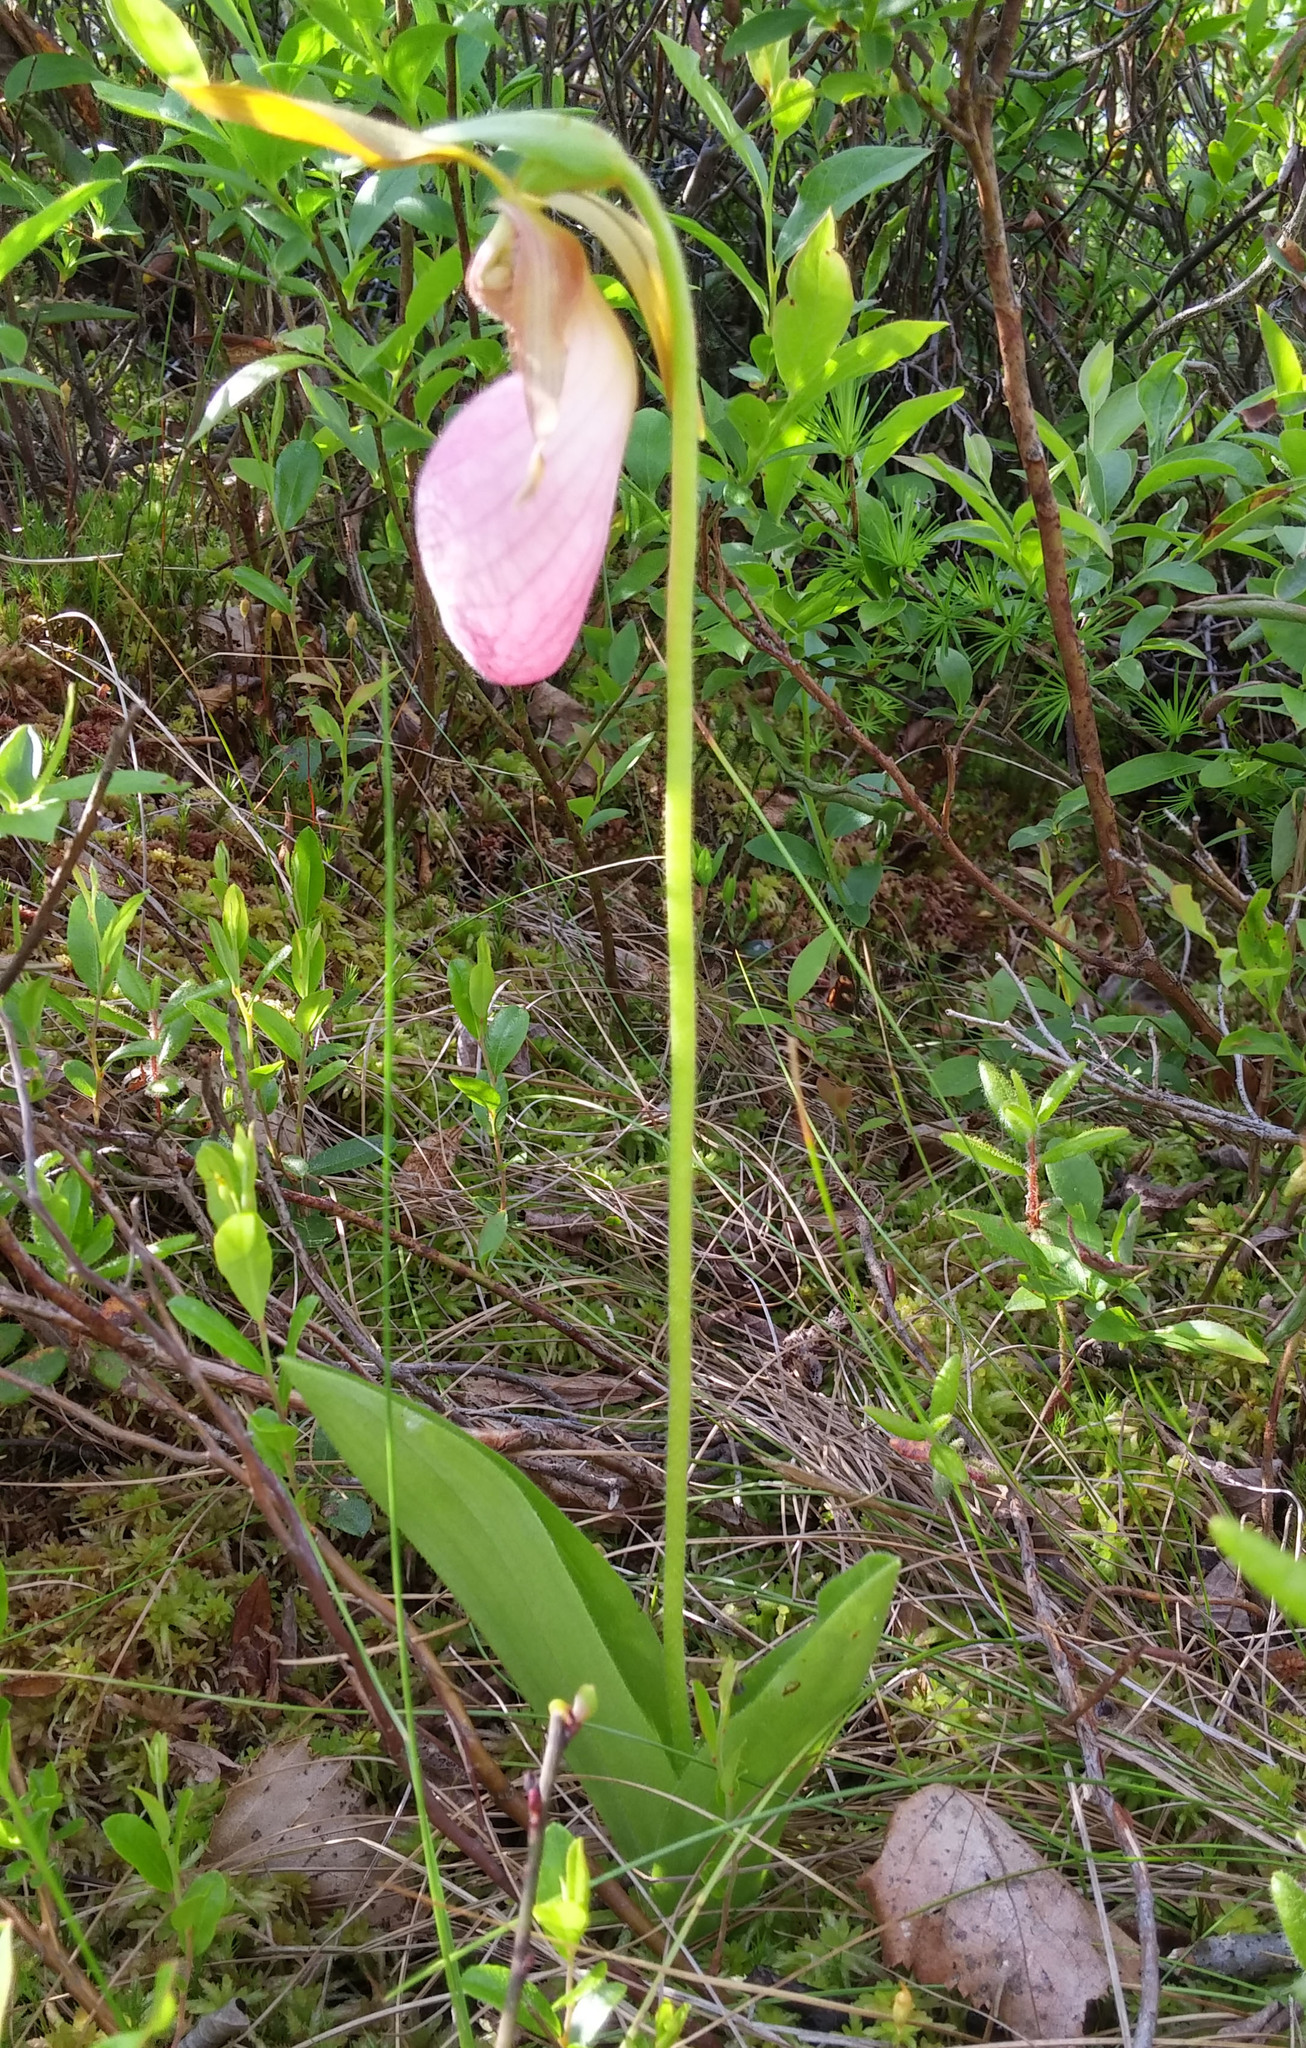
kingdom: Plantae
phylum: Tracheophyta
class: Liliopsida
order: Asparagales
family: Orchidaceae
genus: Cypripedium
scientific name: Cypripedium acaule
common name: Pink lady's-slipper
